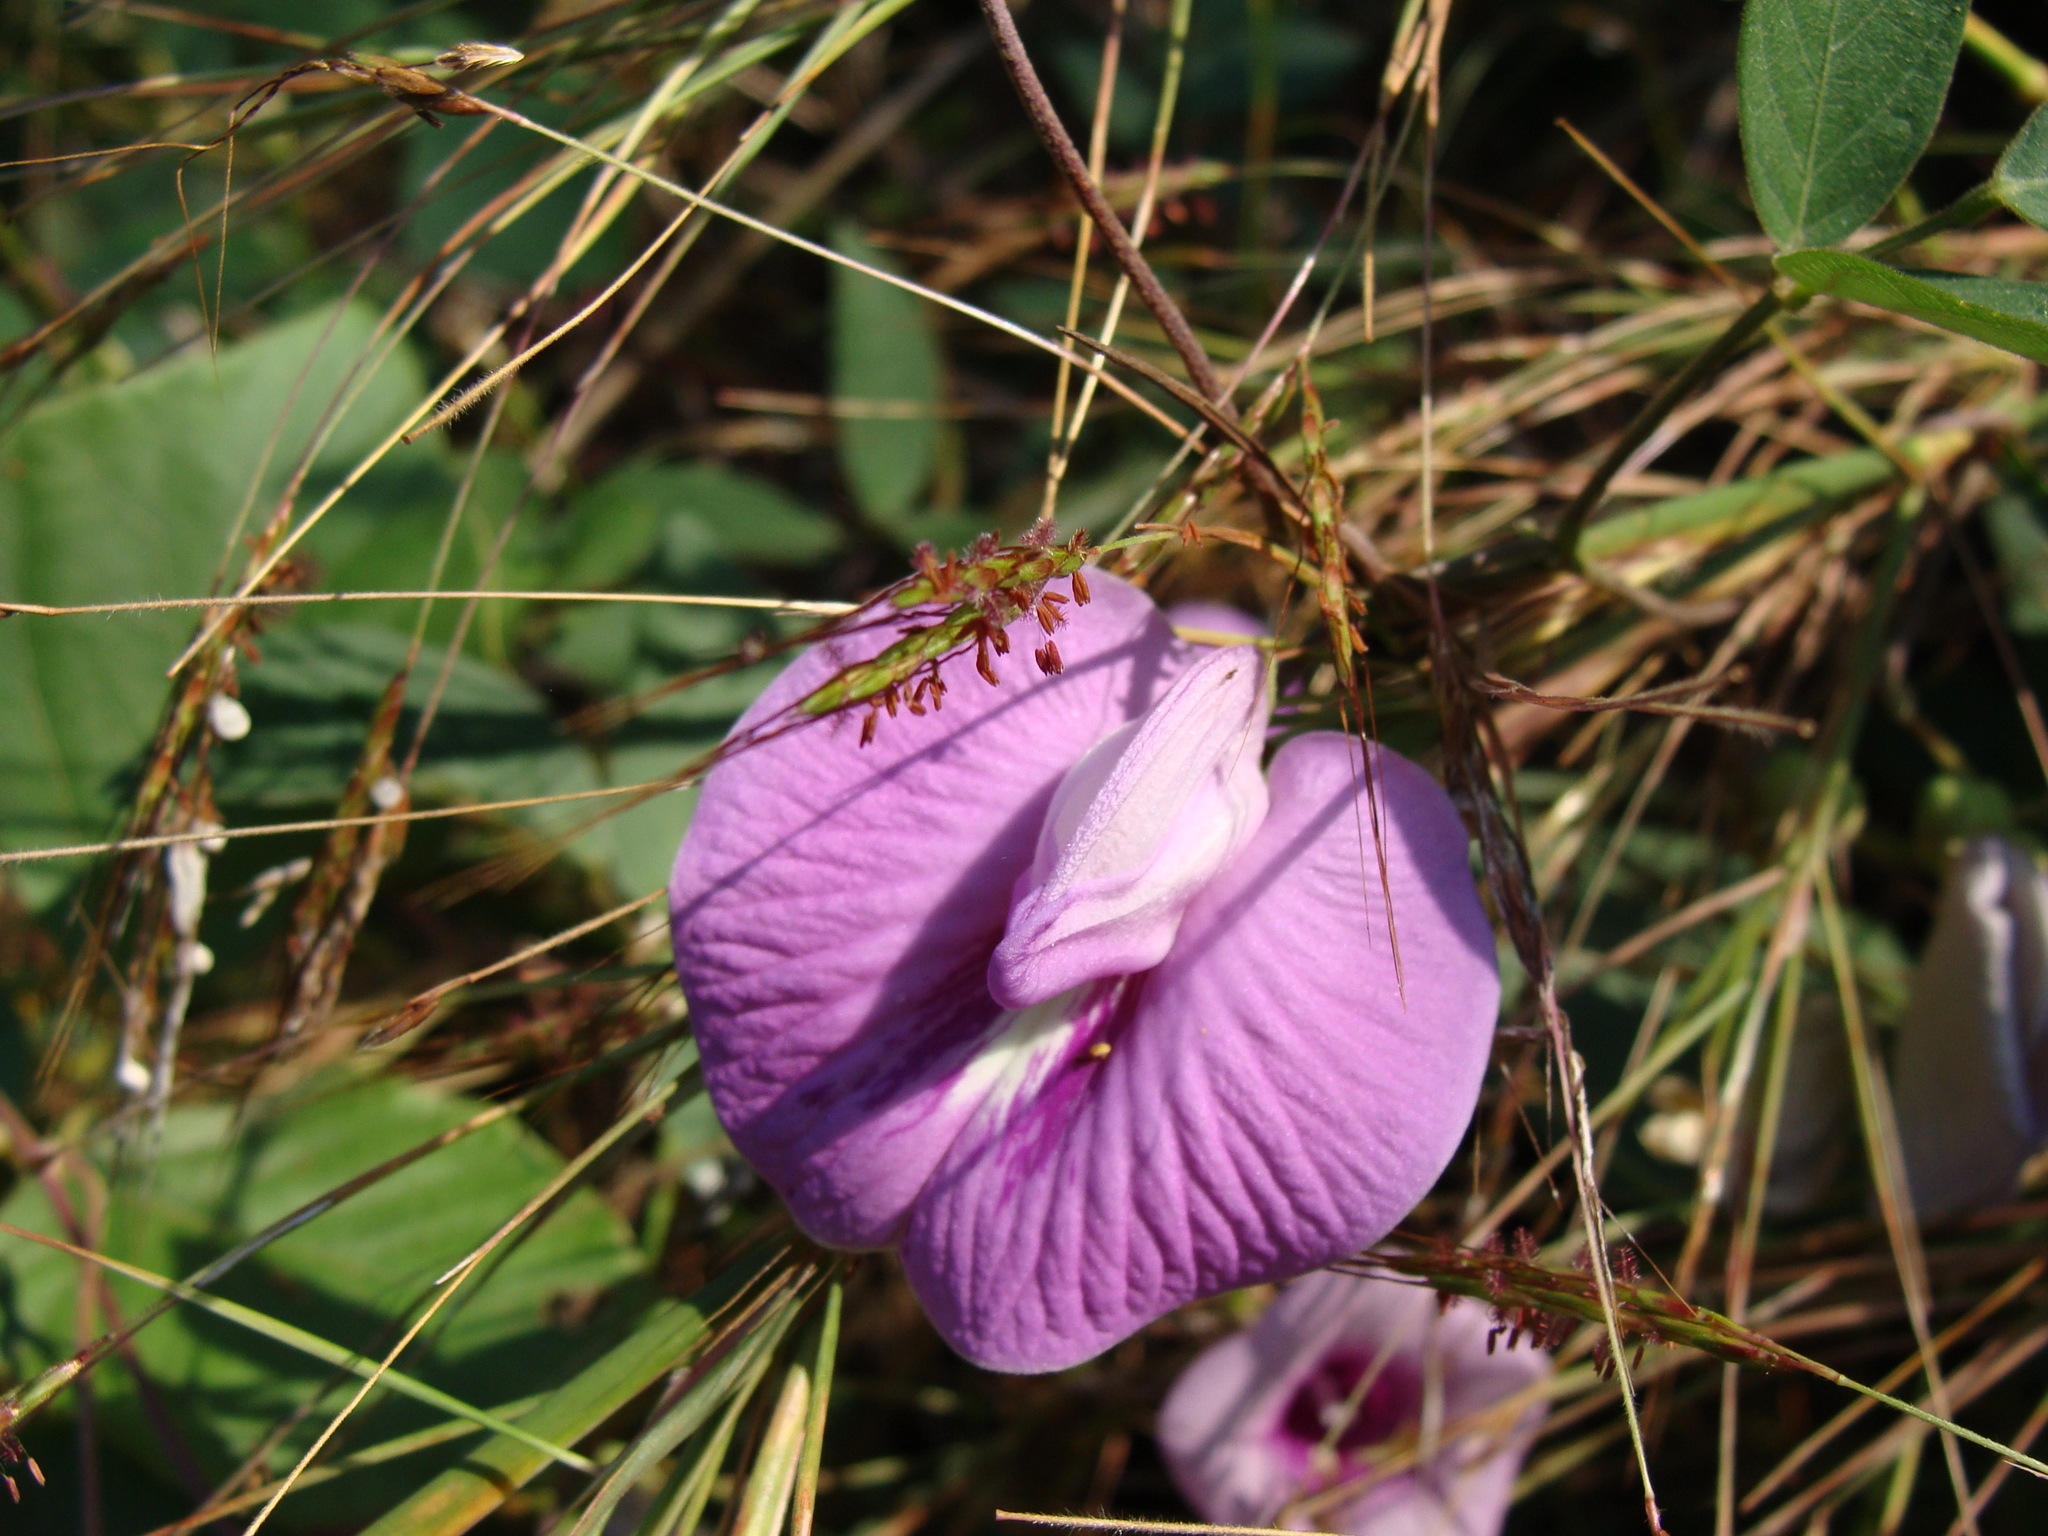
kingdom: Plantae
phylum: Tracheophyta
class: Magnoliopsida
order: Fabales
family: Fabaceae
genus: Centrosema
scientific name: Centrosema virginianum
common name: Butterfly-pea
